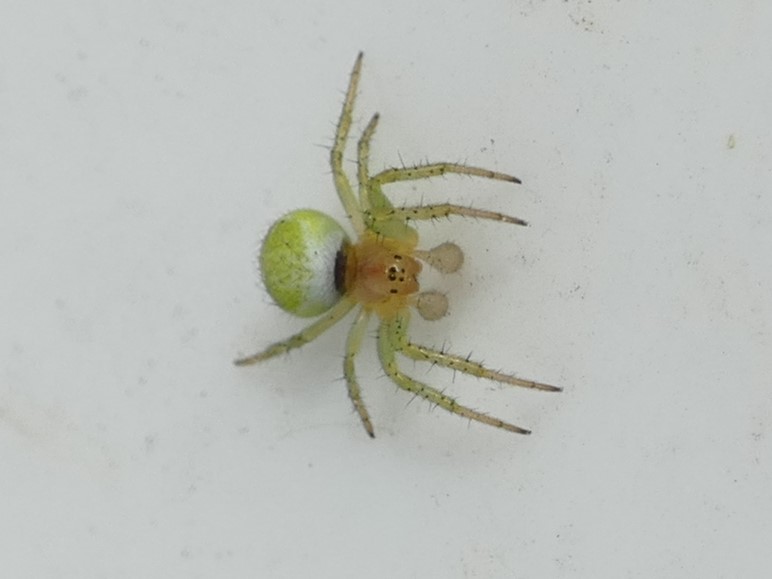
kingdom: Animalia
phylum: Arthropoda
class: Arachnida
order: Araneae
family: Araneidae
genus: Araniella
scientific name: Araniella
